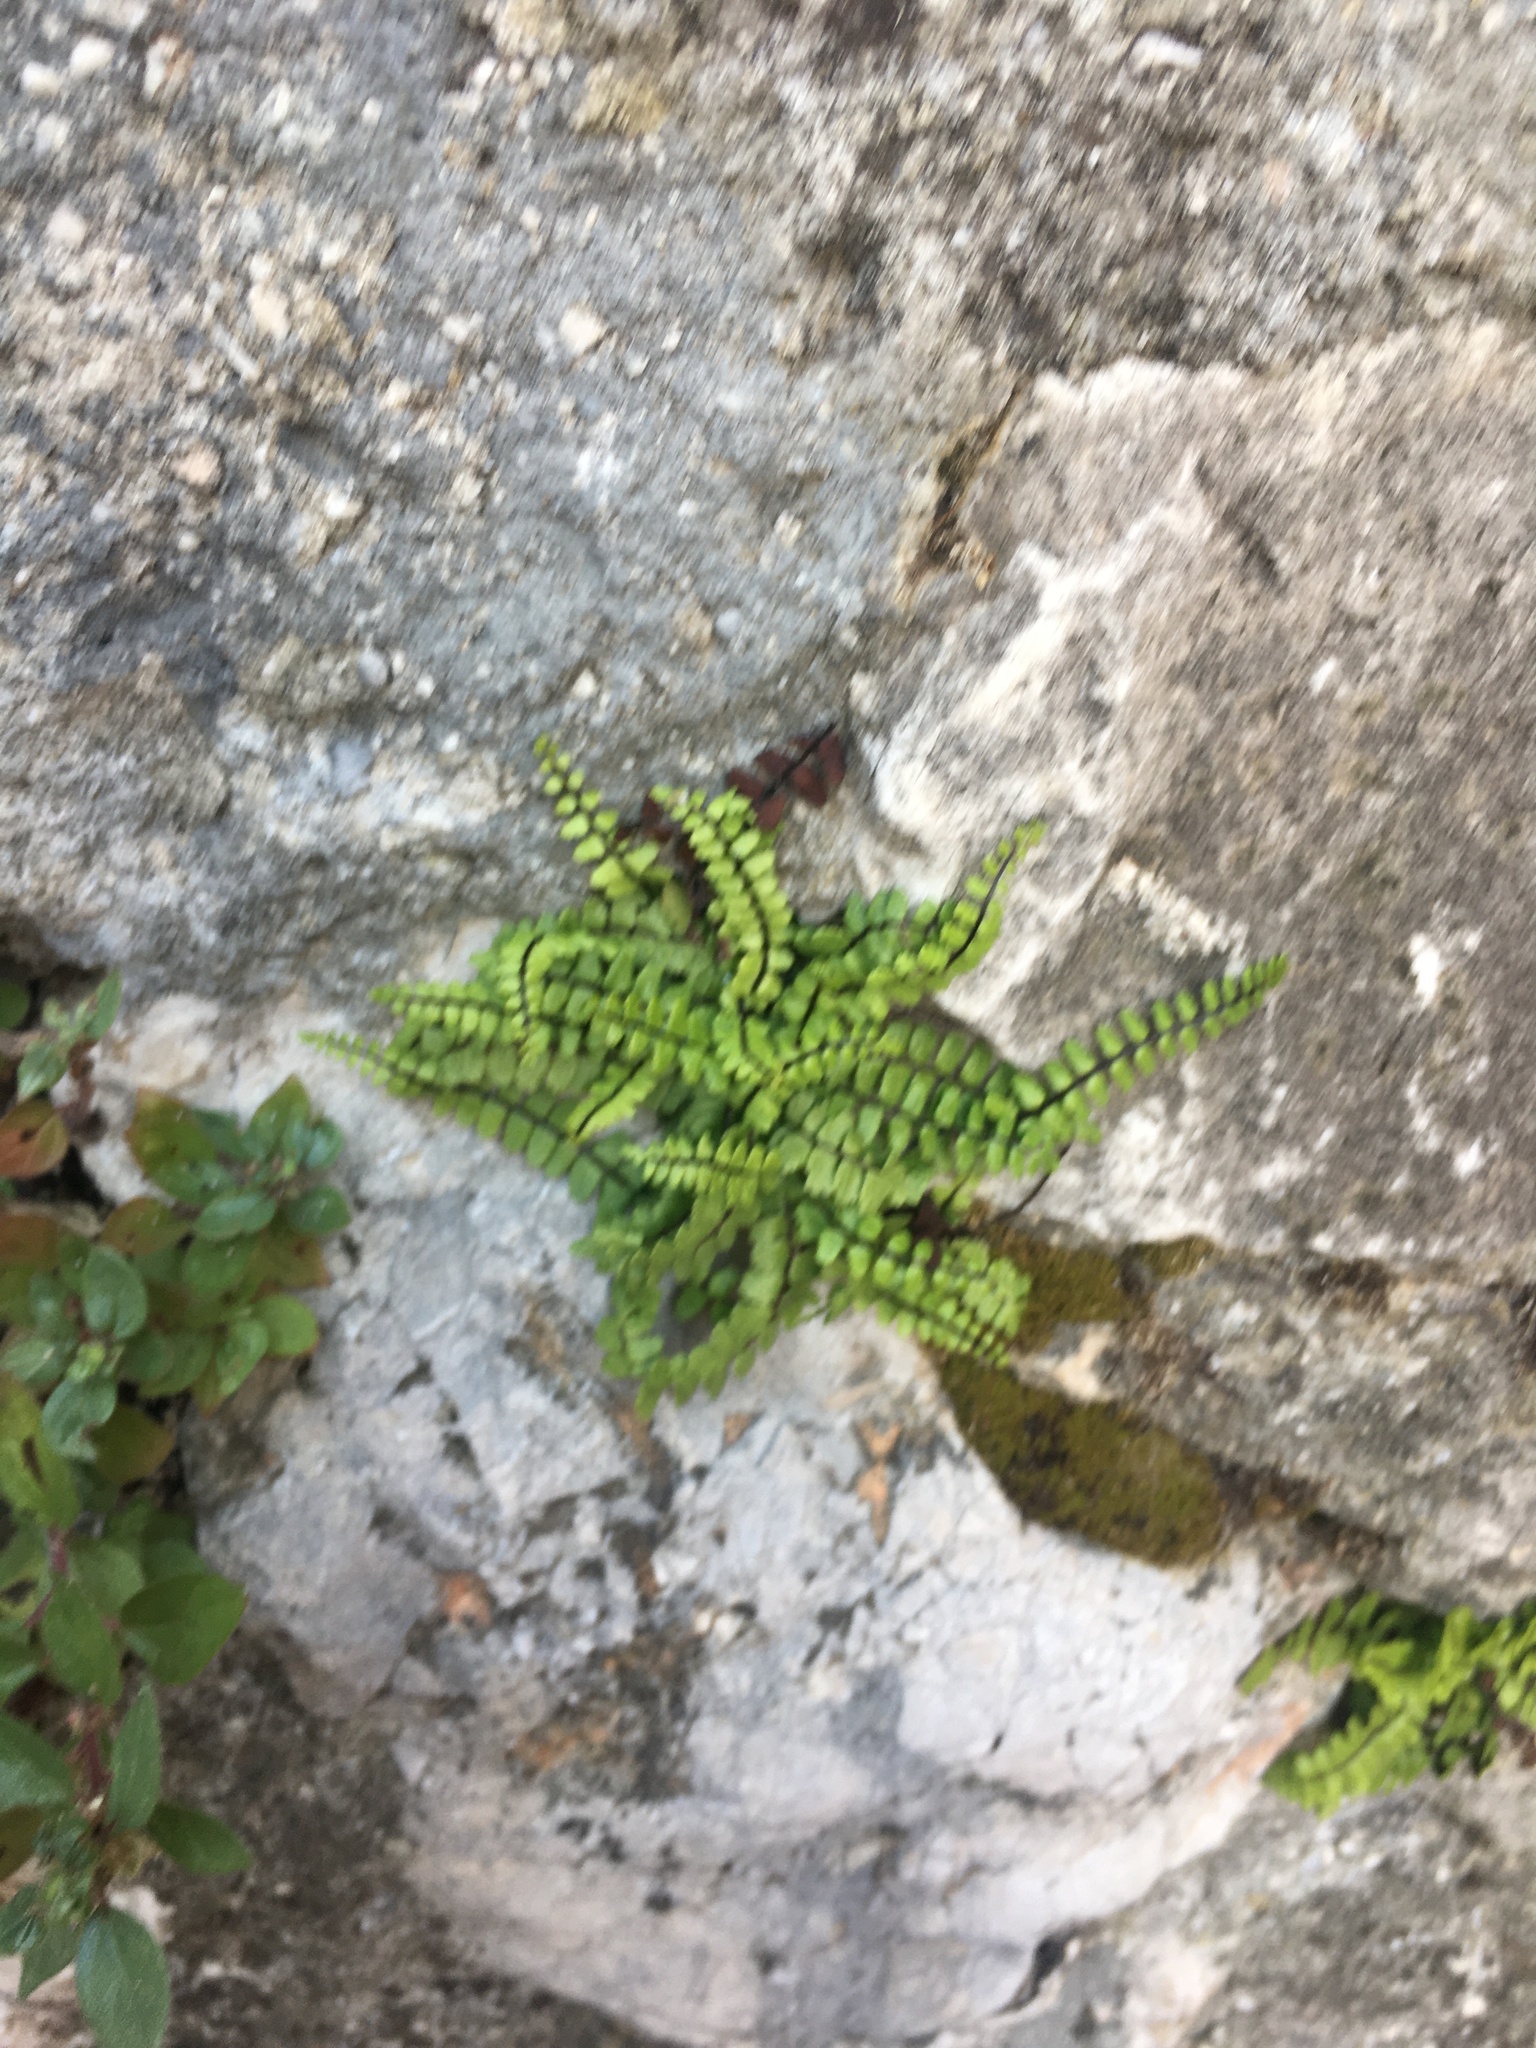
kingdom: Plantae
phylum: Tracheophyta
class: Polypodiopsida
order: Polypodiales
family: Aspleniaceae
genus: Asplenium
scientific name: Asplenium trichomanes
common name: Maidenhair spleenwort
